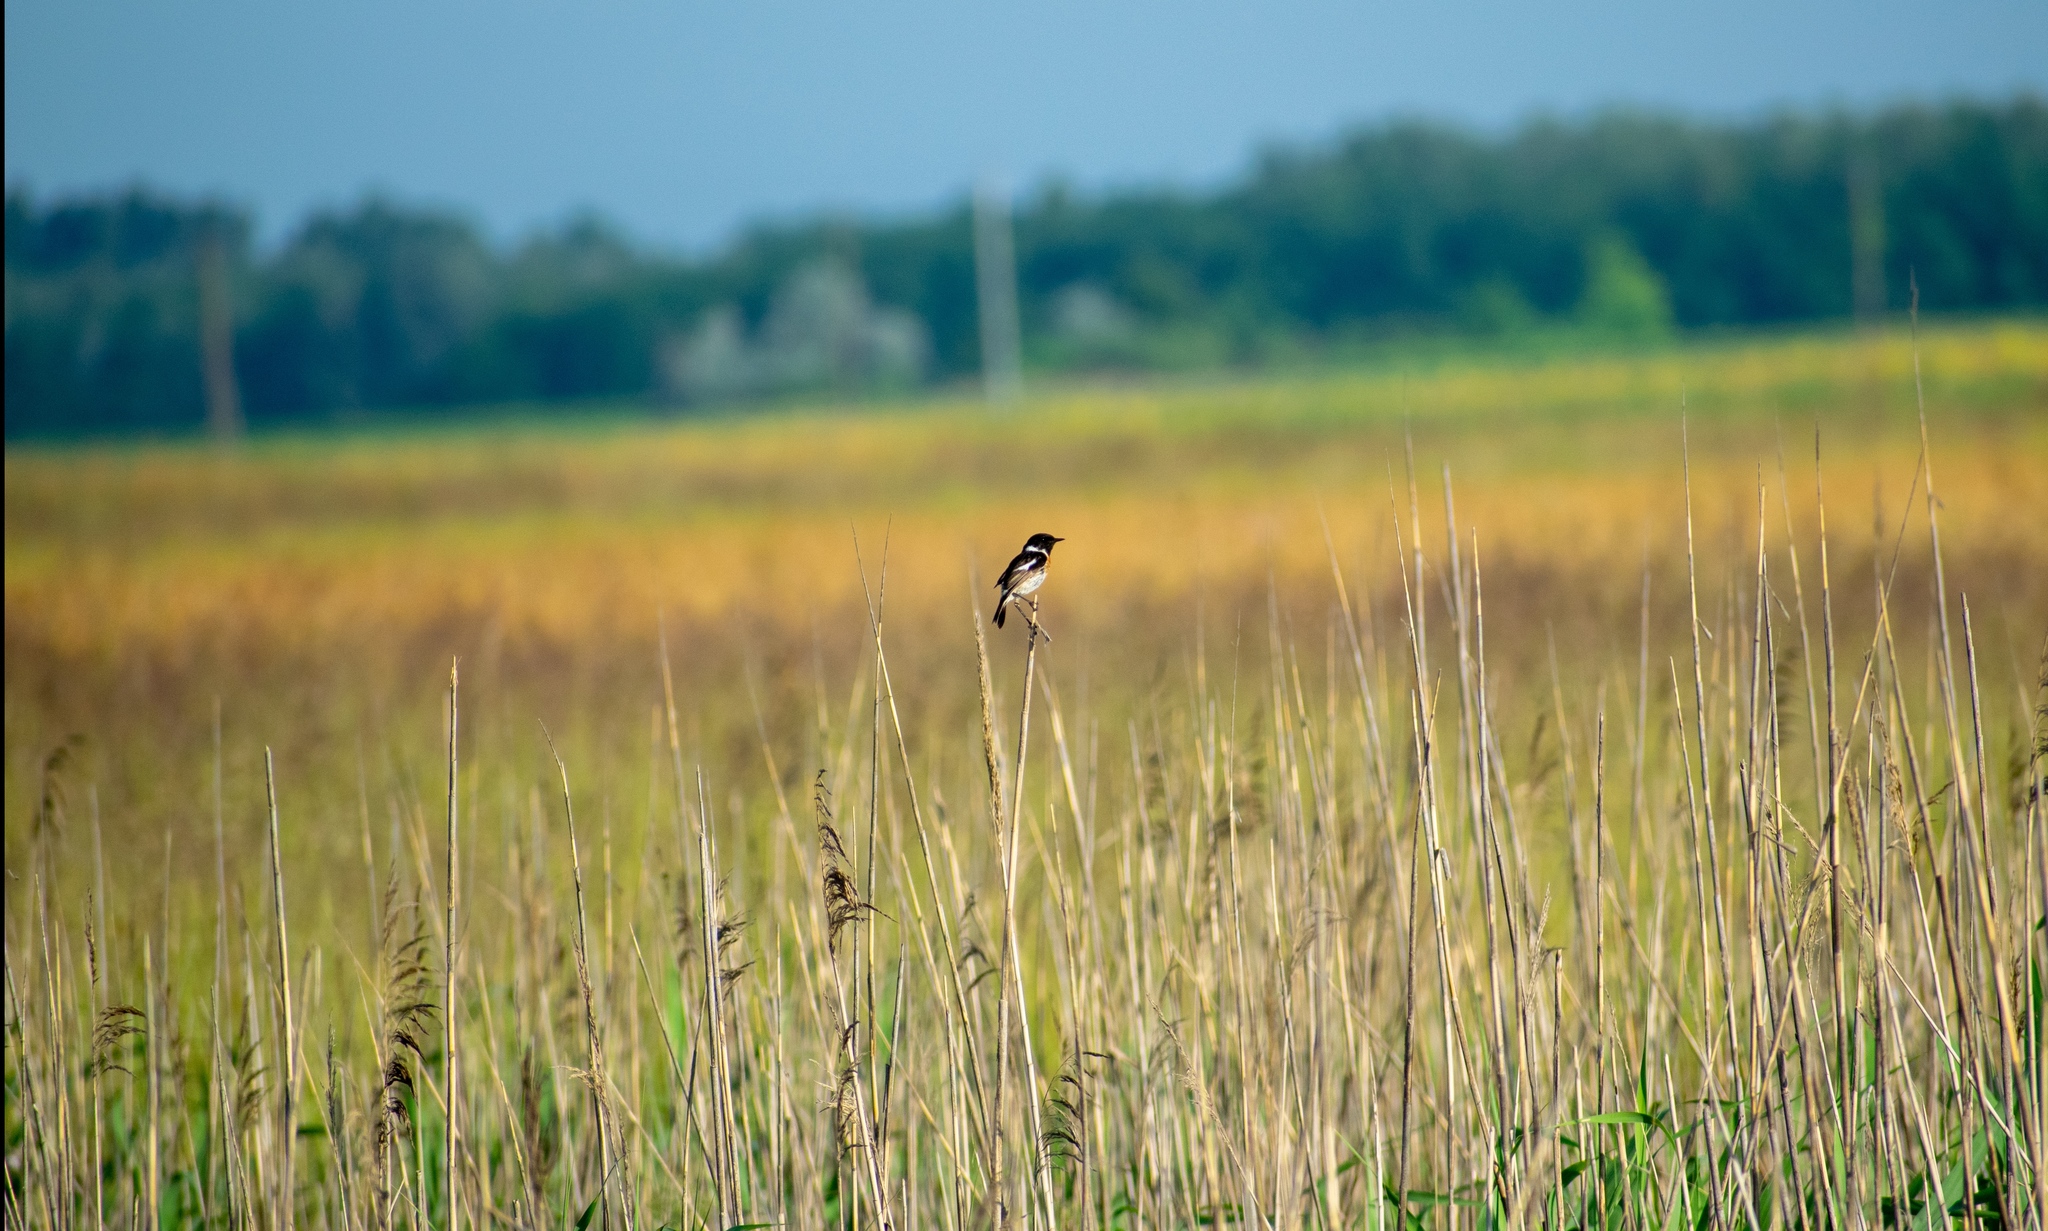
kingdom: Animalia
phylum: Chordata
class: Aves
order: Passeriformes
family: Muscicapidae
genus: Saxicola
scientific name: Saxicola rubicola
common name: European stonechat
